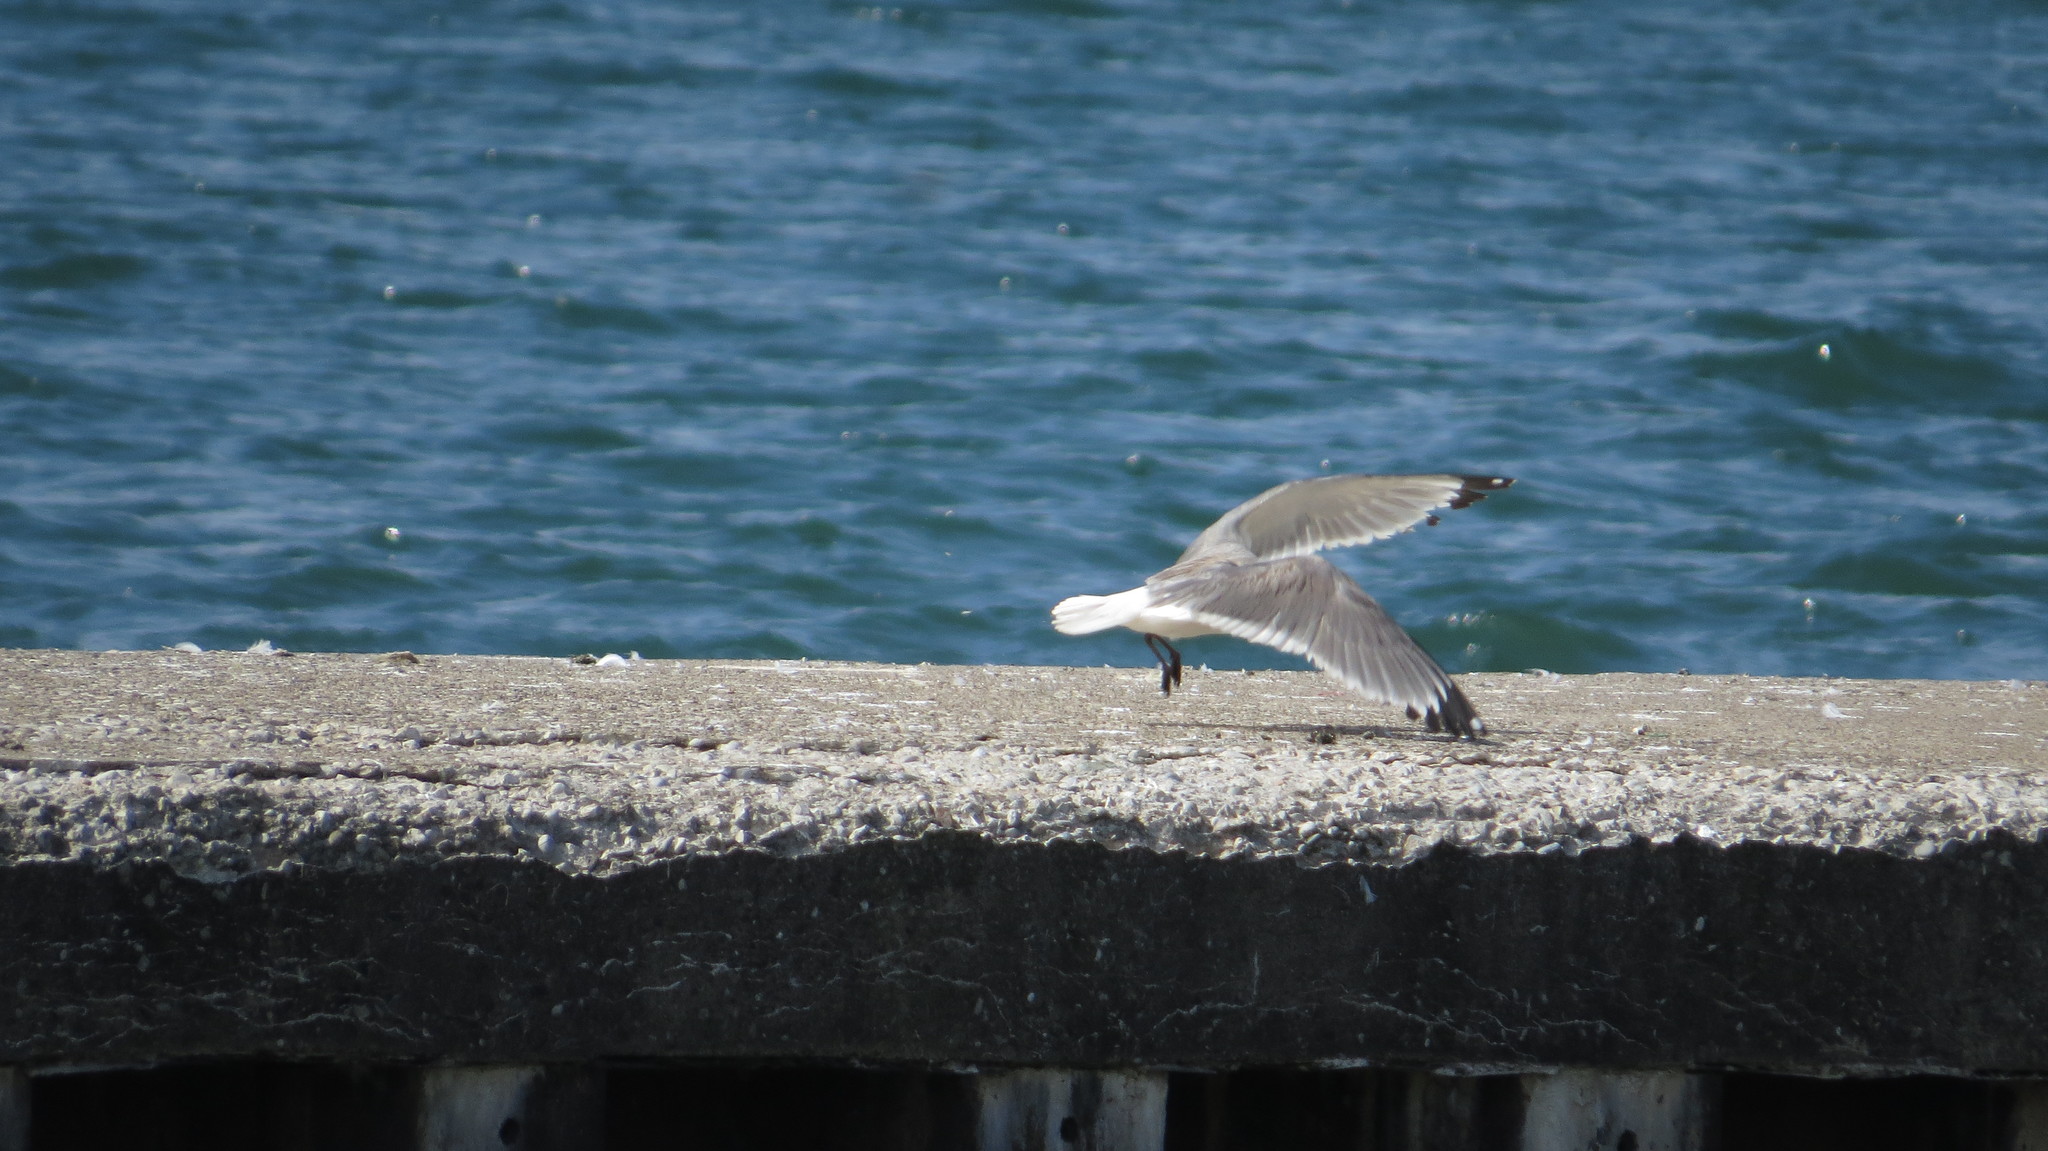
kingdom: Animalia
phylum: Chordata
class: Aves
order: Charadriiformes
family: Laridae
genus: Leucophaeus
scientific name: Leucophaeus pipixcan
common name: Franklin's gull
